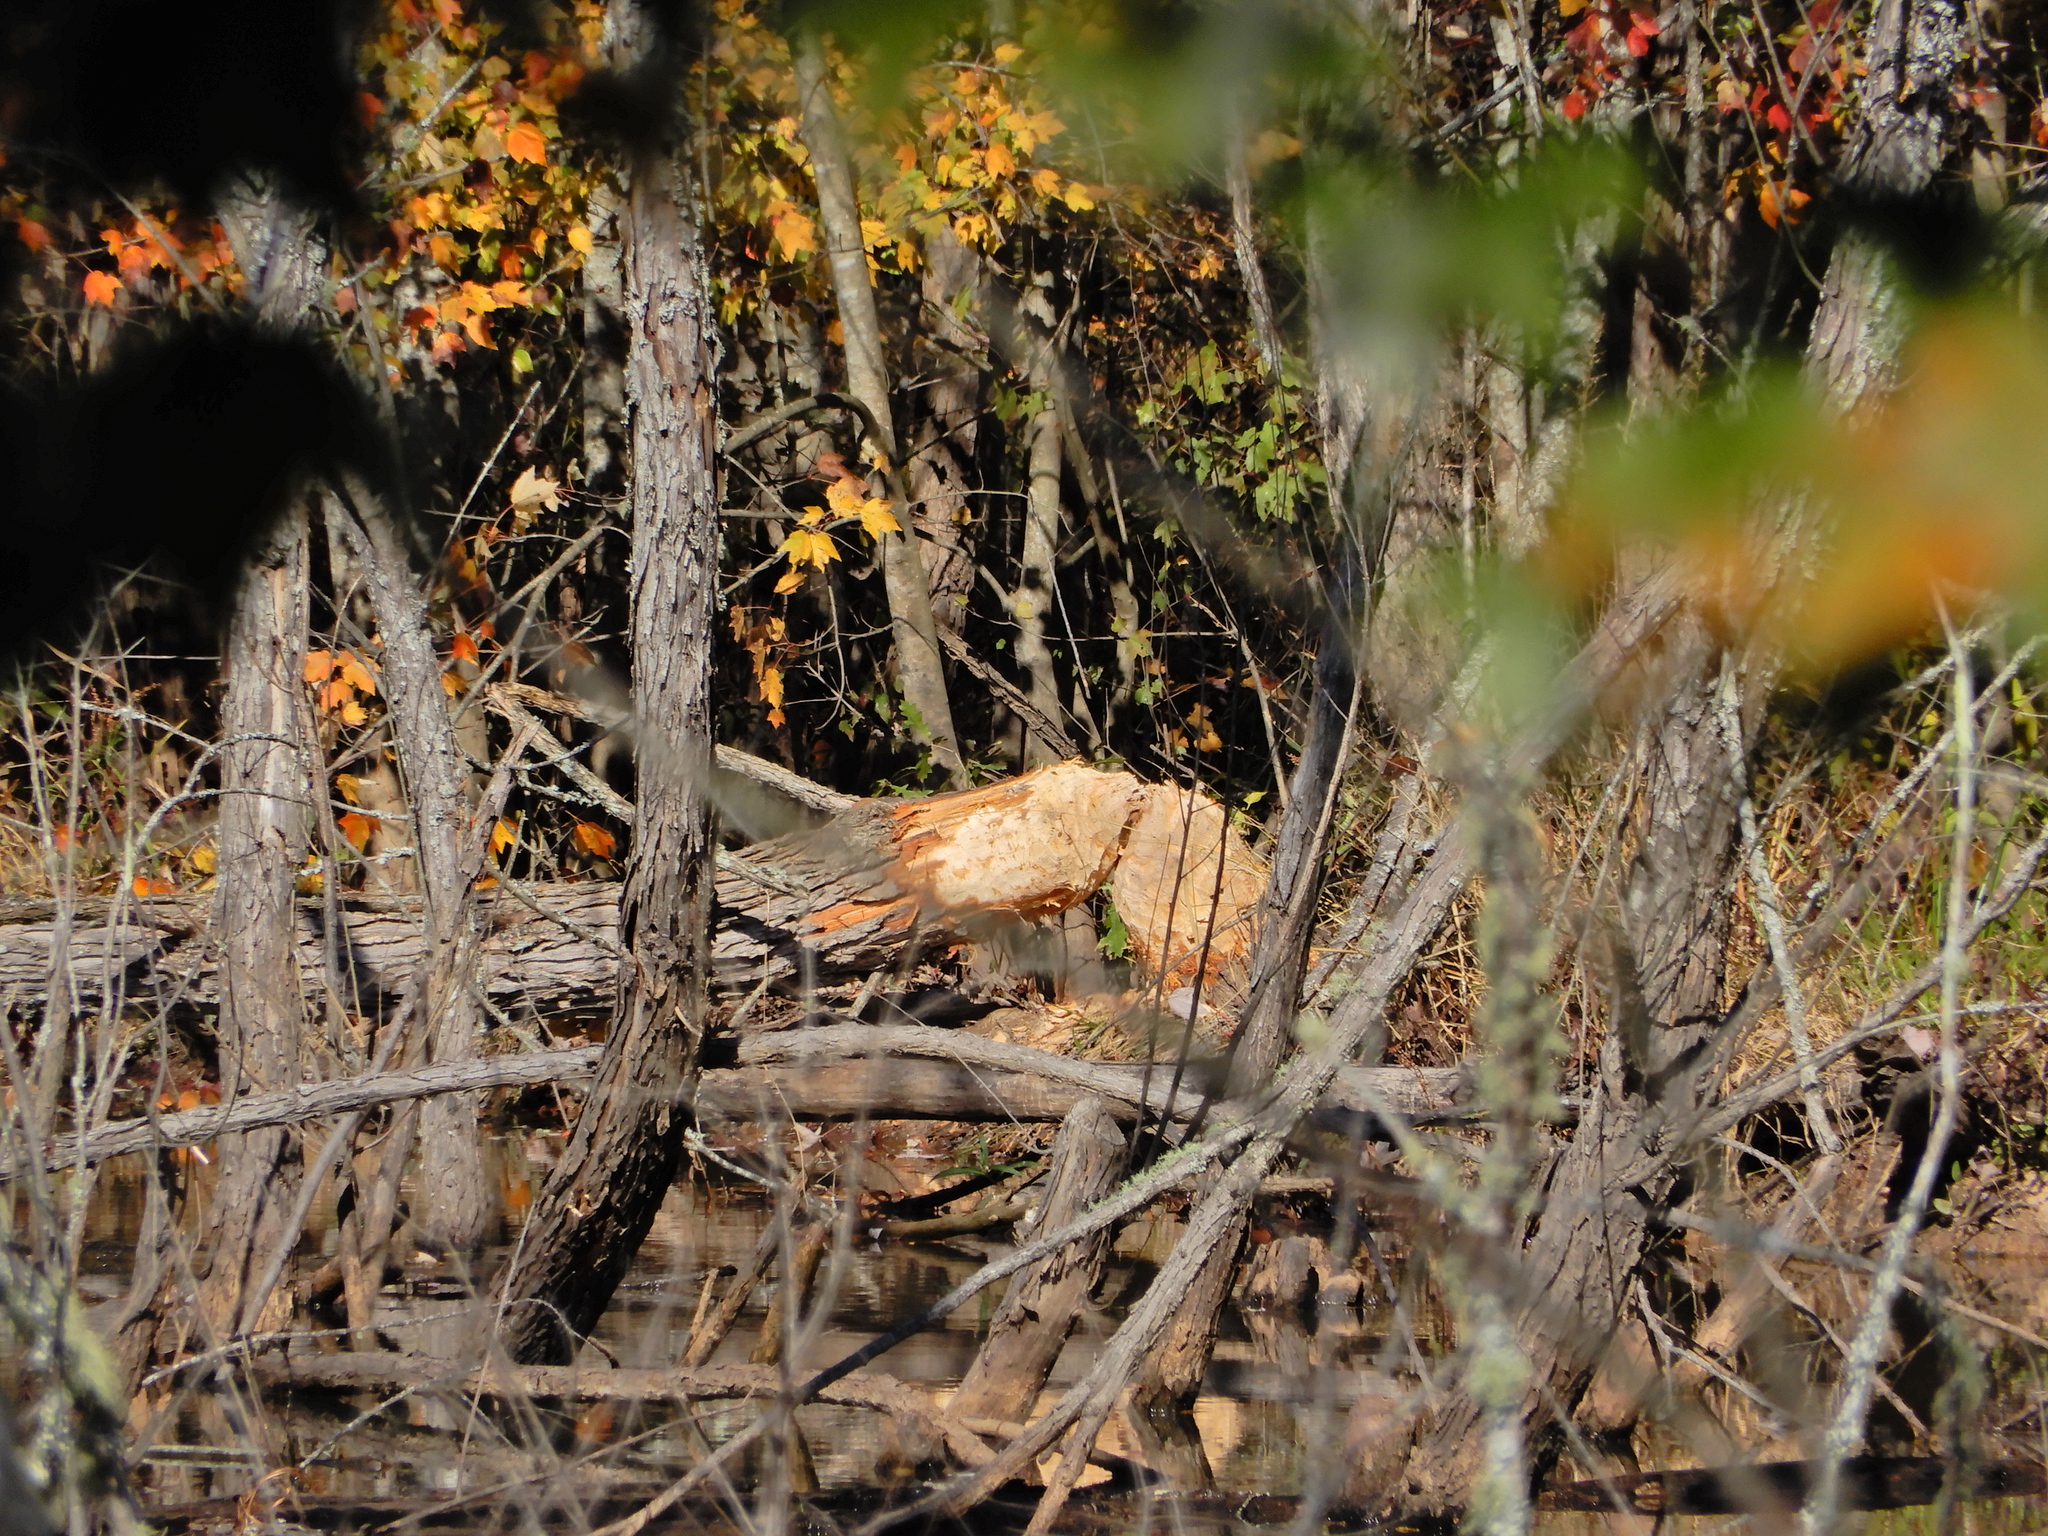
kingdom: Animalia
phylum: Chordata
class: Mammalia
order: Rodentia
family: Castoridae
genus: Castor
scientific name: Castor canadensis
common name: American beaver
